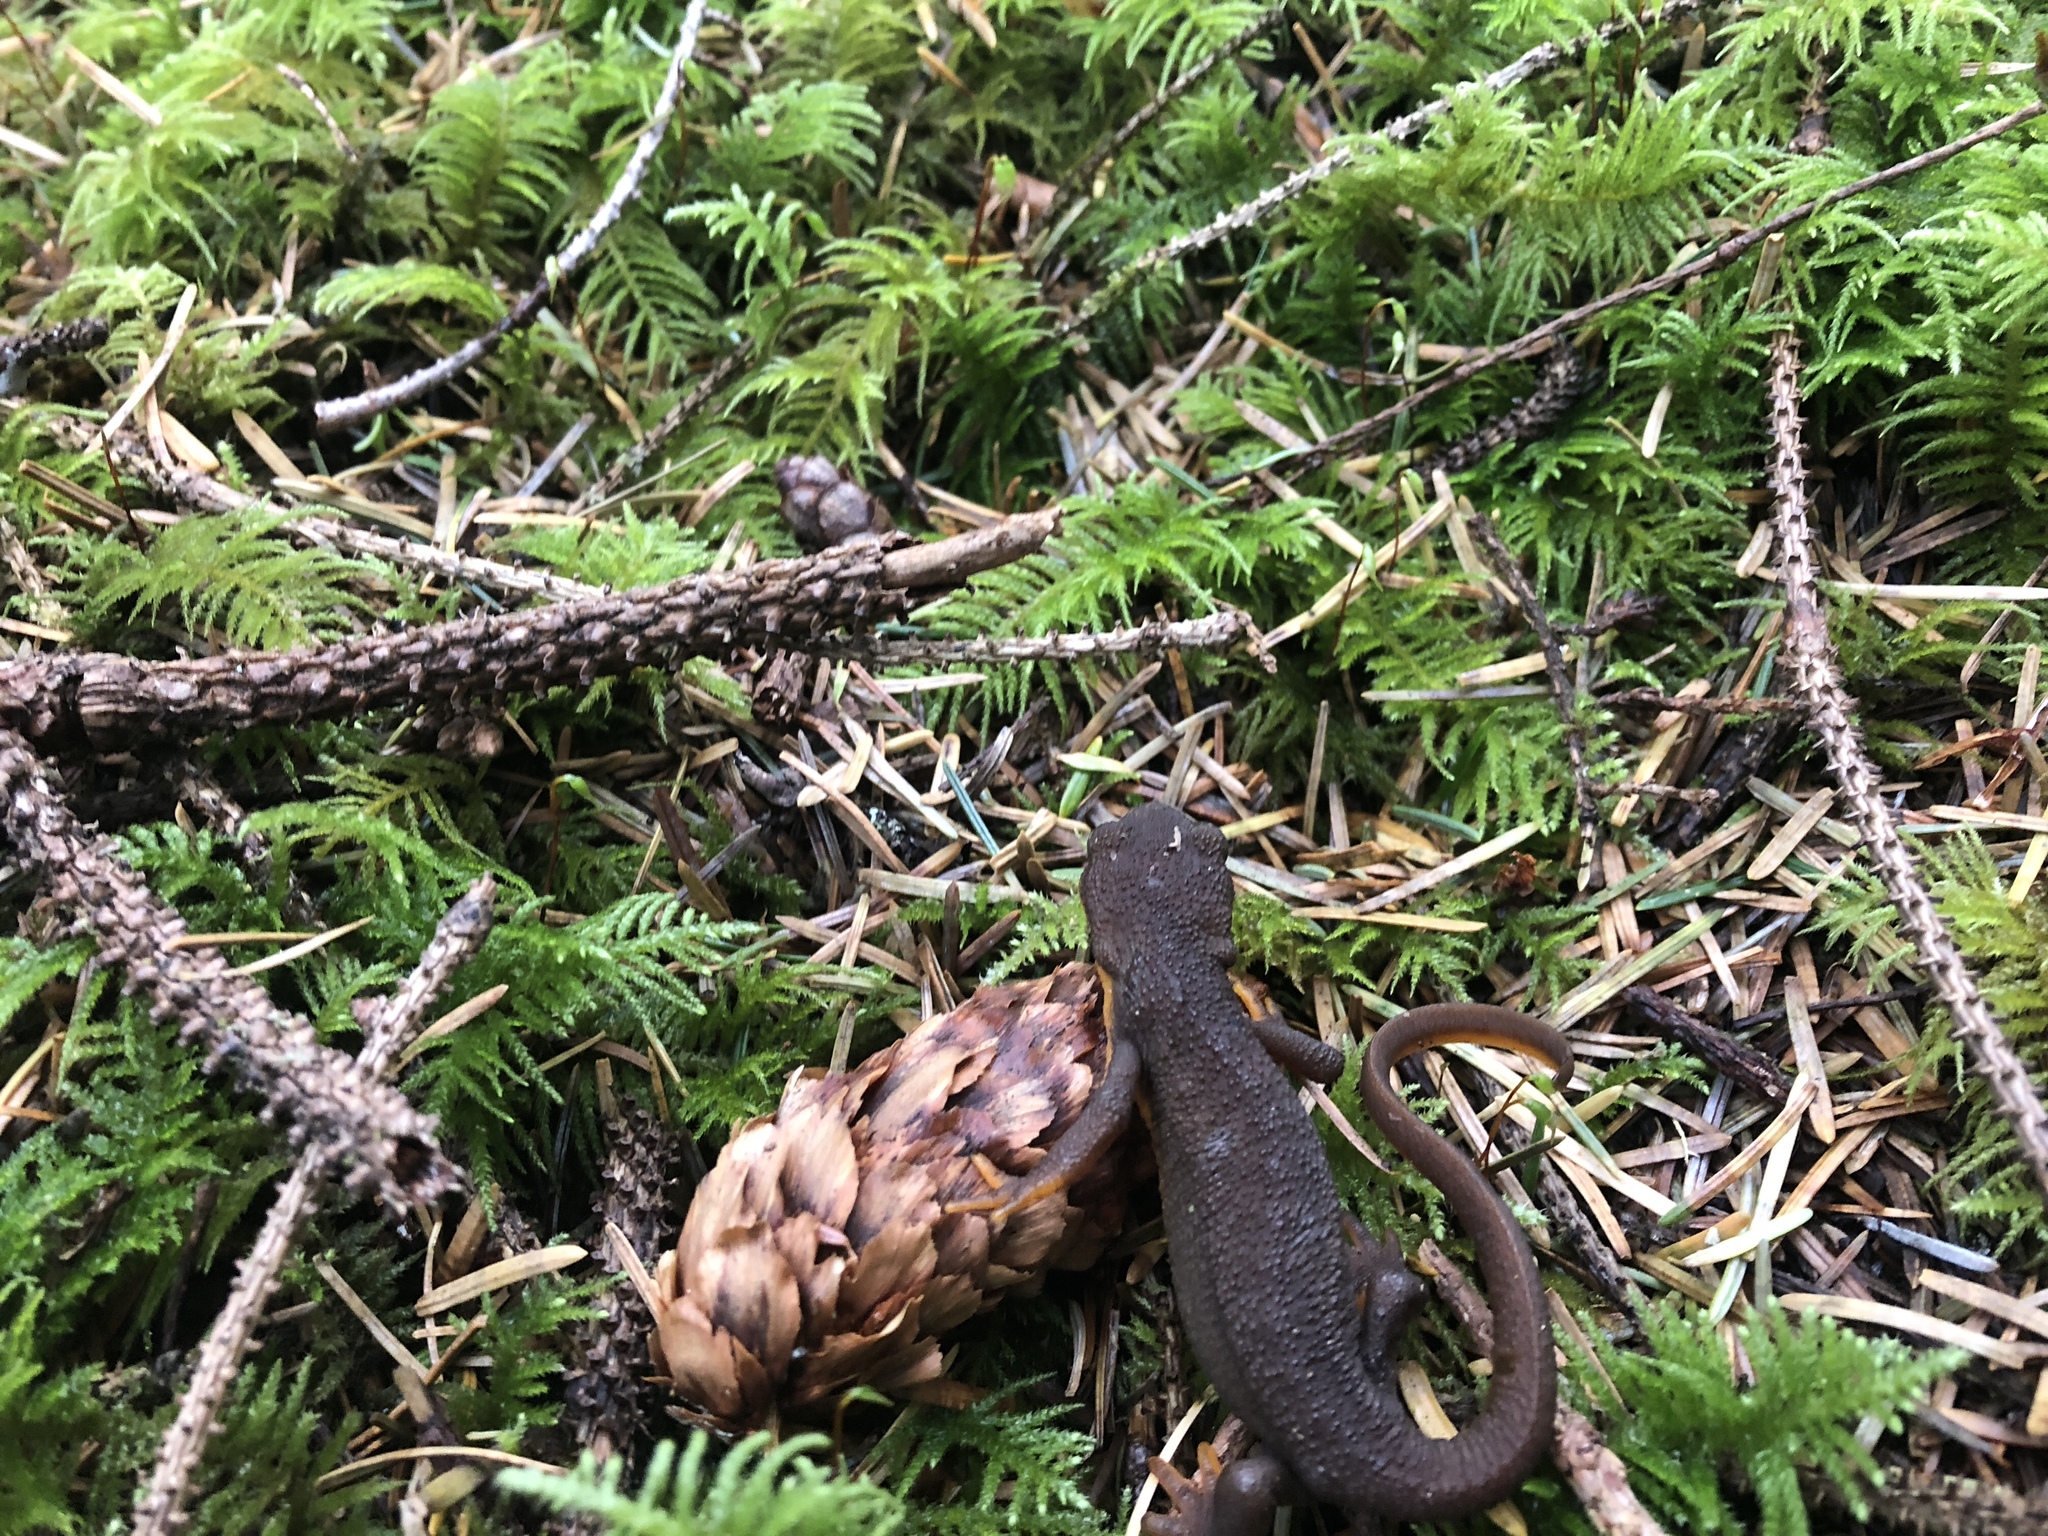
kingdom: Animalia
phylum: Chordata
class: Amphibia
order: Caudata
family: Salamandridae
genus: Taricha
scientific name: Taricha granulosa
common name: Roughskin newt
